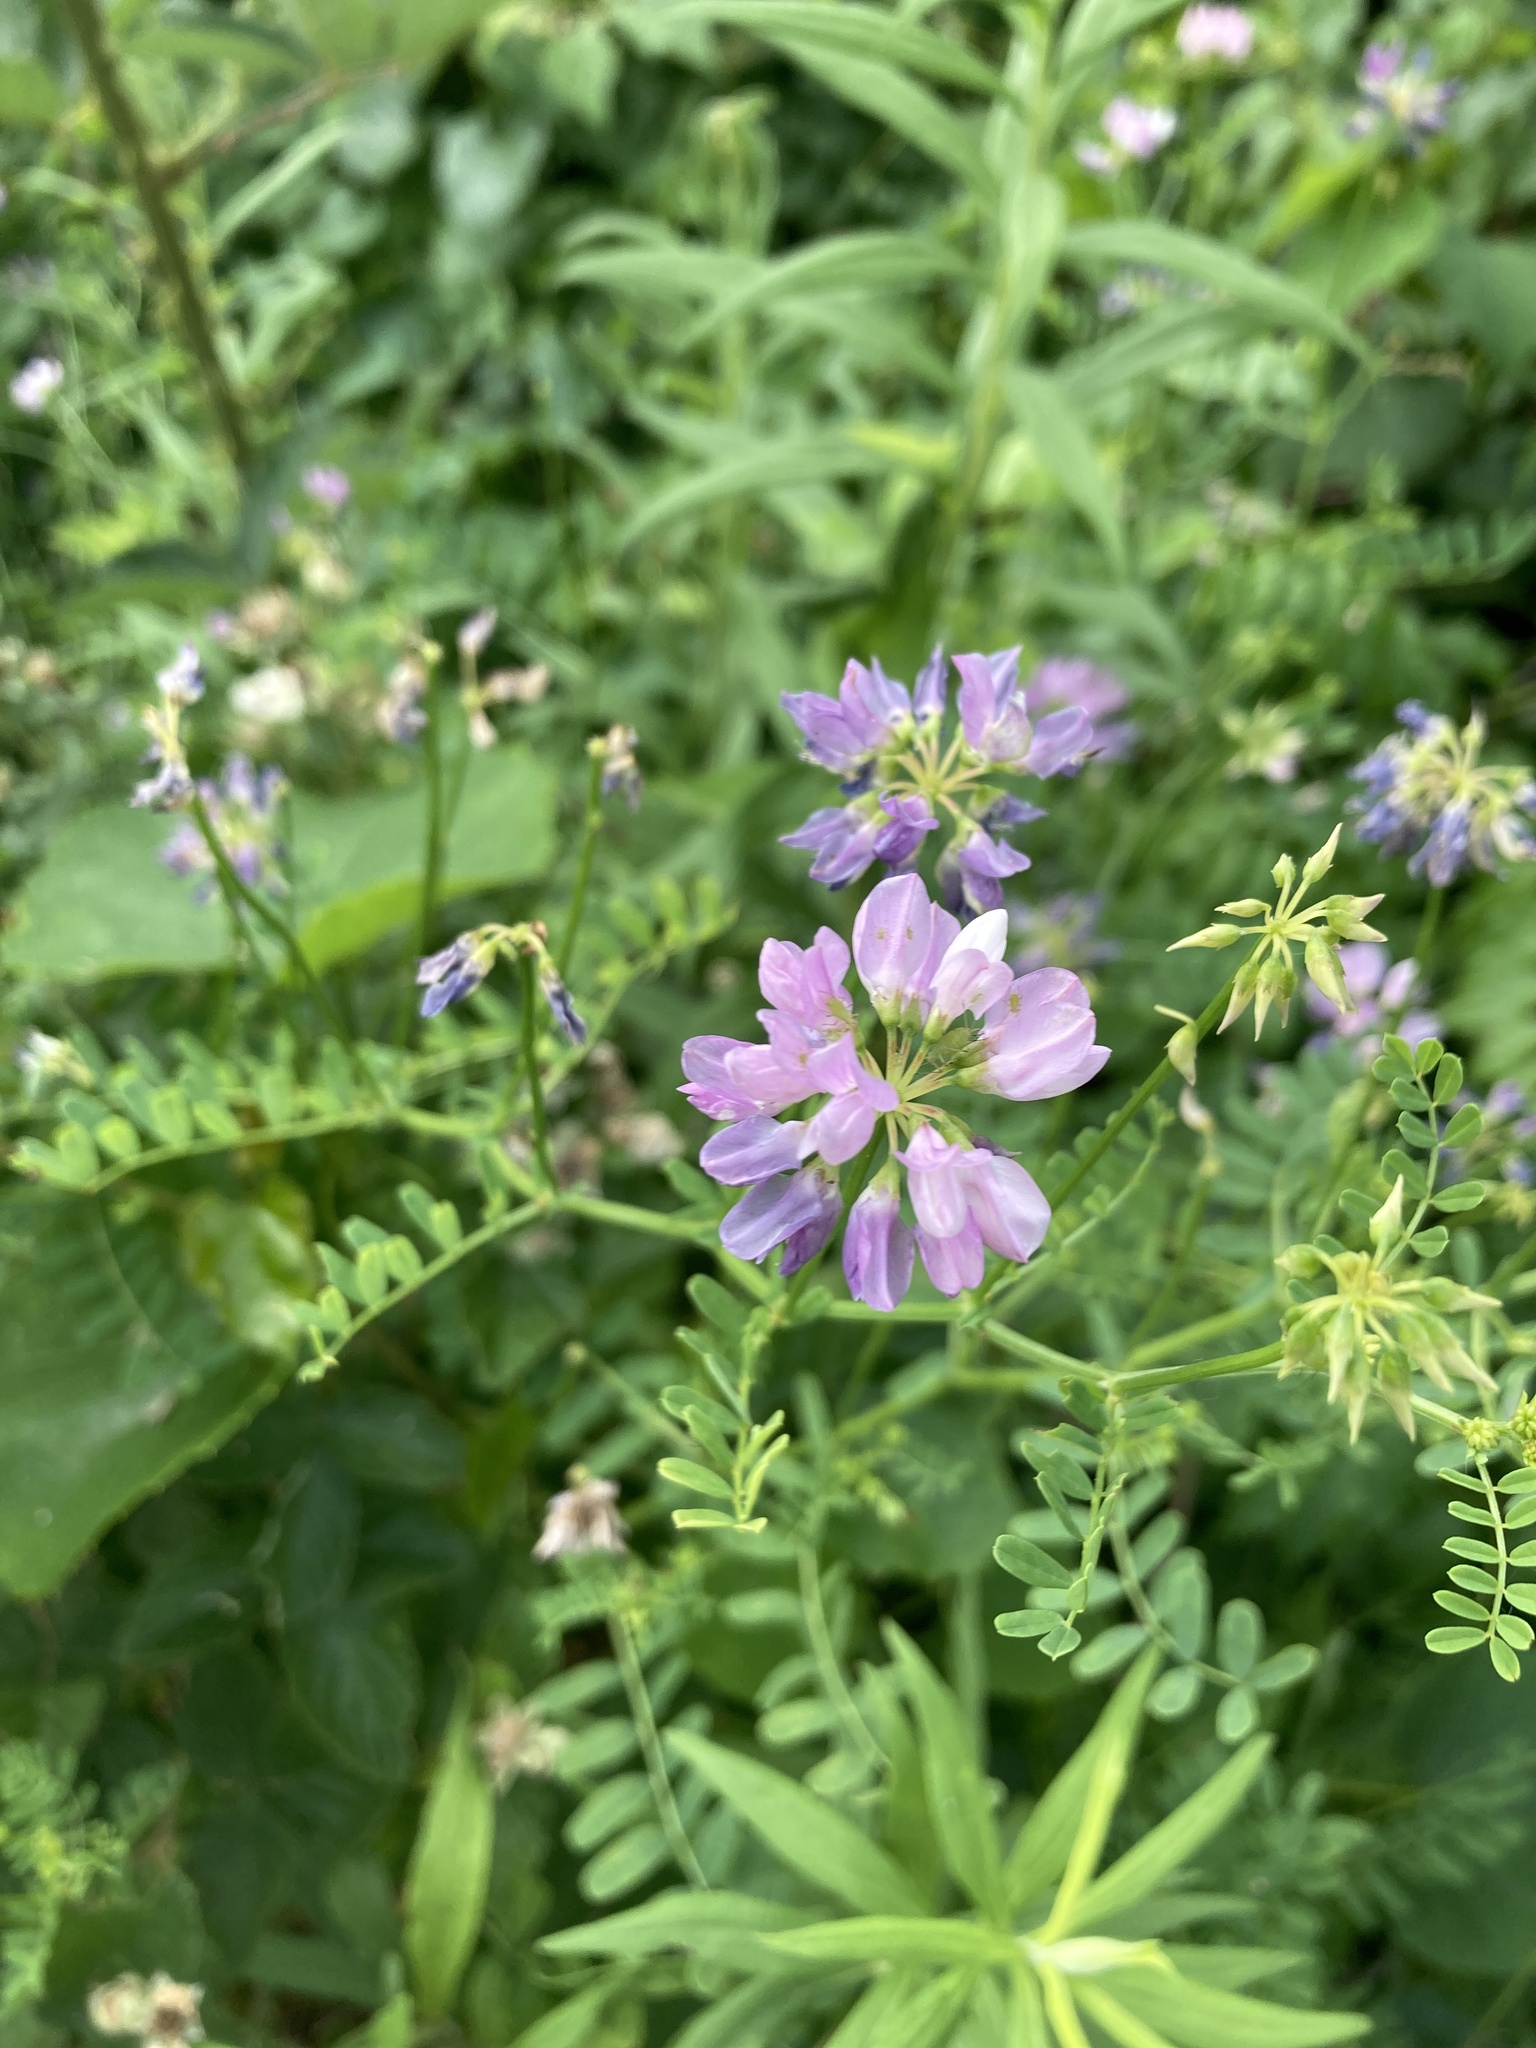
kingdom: Plantae
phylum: Tracheophyta
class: Magnoliopsida
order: Fabales
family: Fabaceae
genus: Coronilla
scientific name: Coronilla varia
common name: Crownvetch
